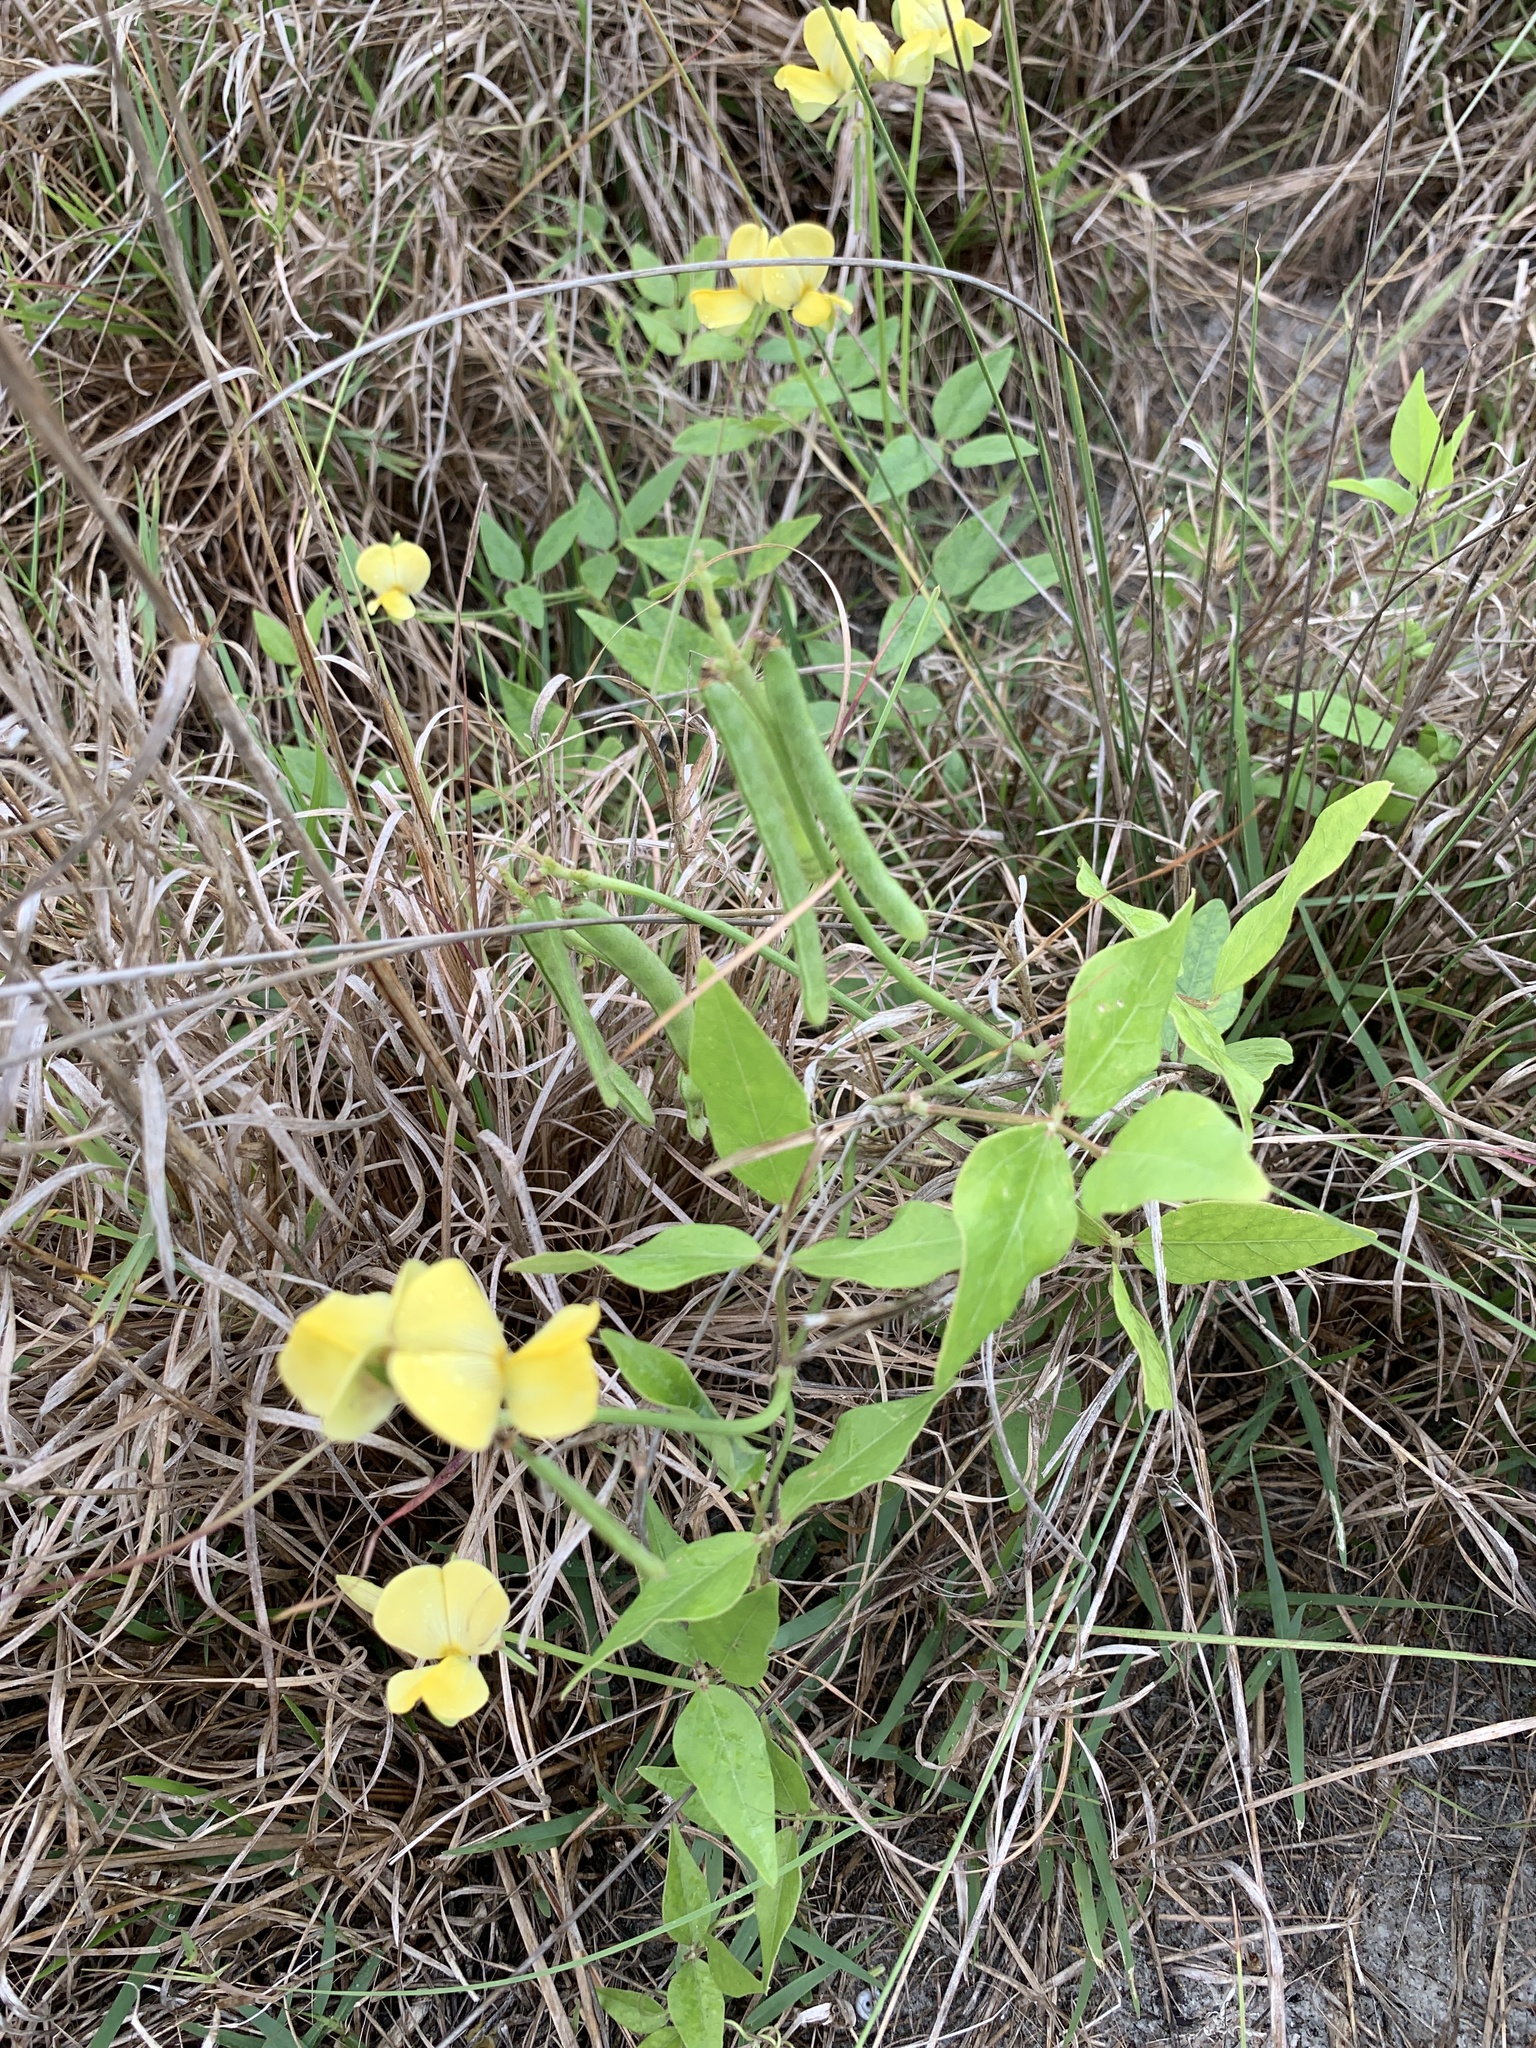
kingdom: Plantae
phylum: Tracheophyta
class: Magnoliopsida
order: Fabales
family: Fabaceae
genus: Vigna
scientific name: Vigna luteola
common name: Hairypod cowpea
